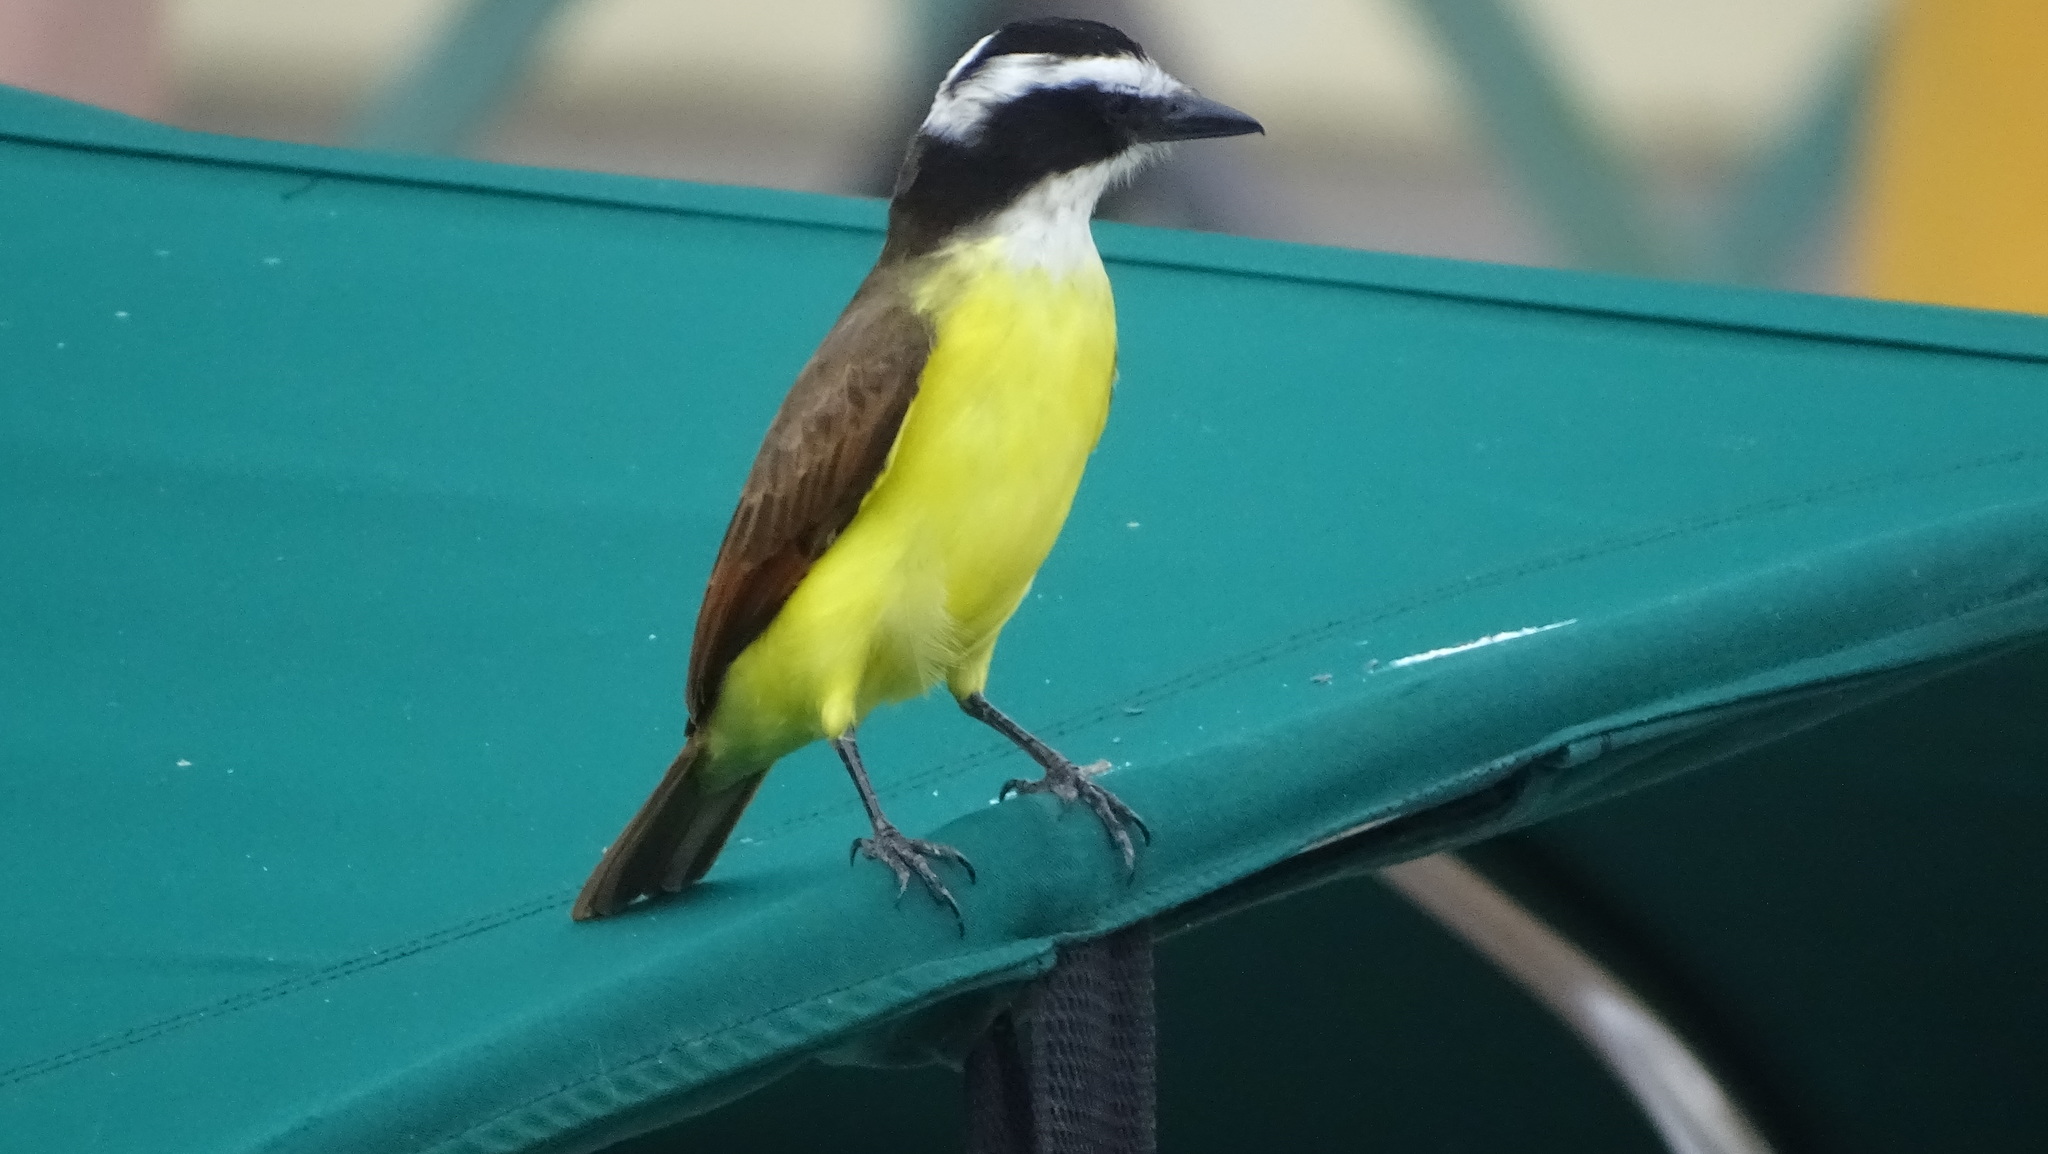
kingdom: Animalia
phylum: Chordata
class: Aves
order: Passeriformes
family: Tyrannidae
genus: Pitangus
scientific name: Pitangus sulphuratus
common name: Great kiskadee
